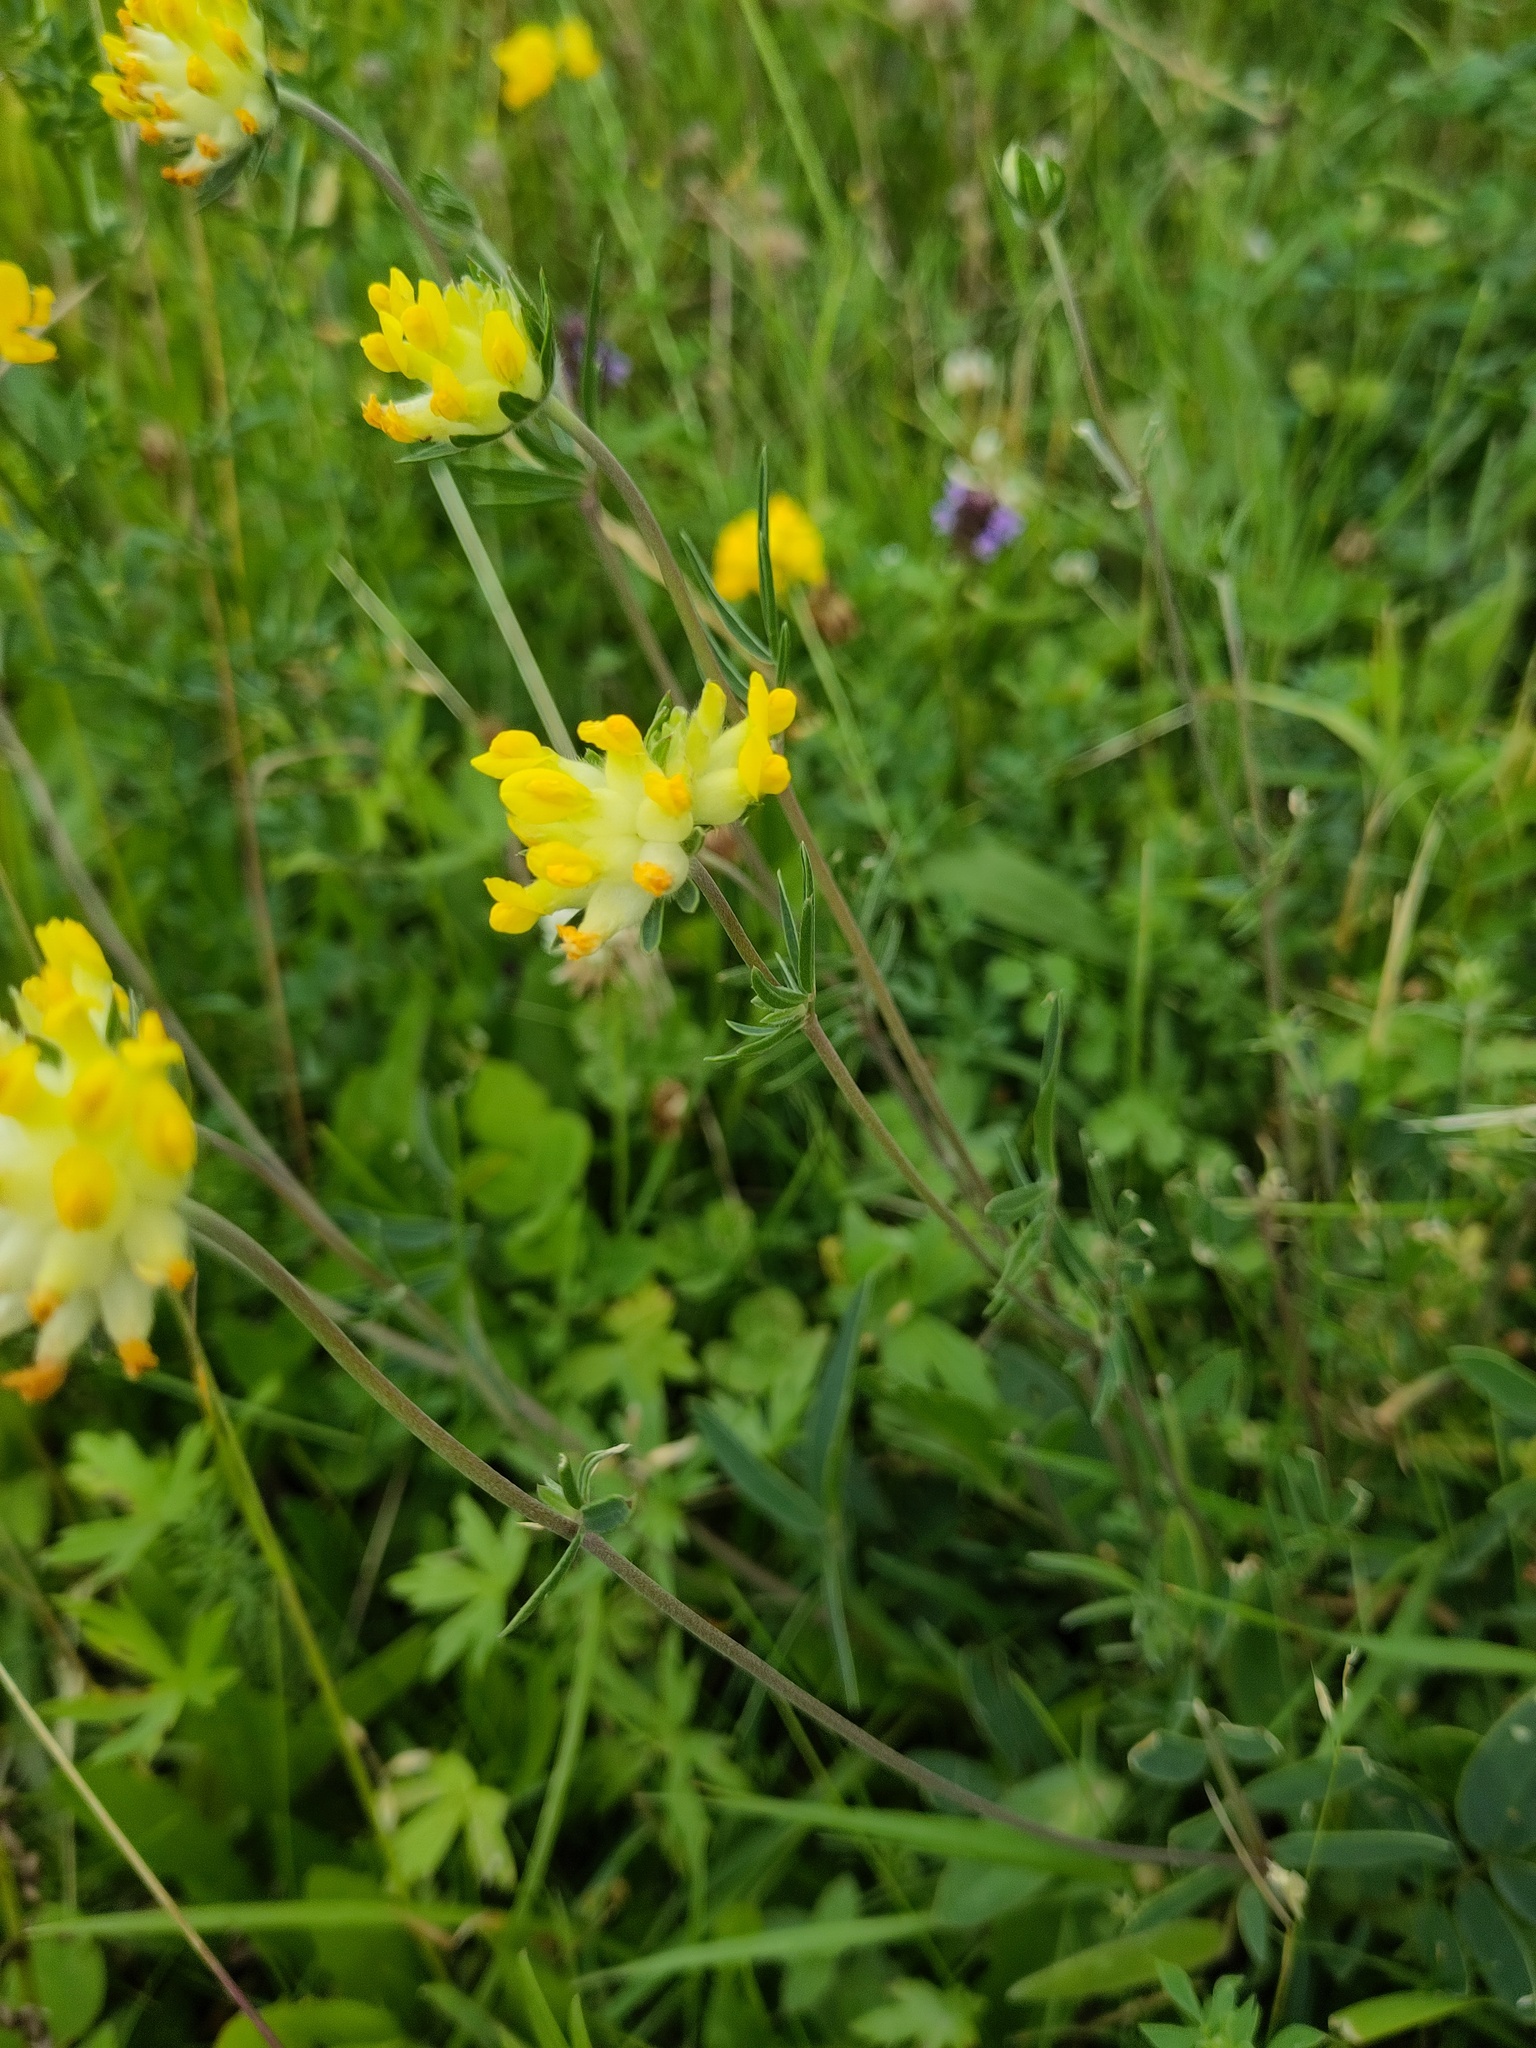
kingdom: Plantae
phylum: Tracheophyta
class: Magnoliopsida
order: Fabales
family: Fabaceae
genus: Anthyllis
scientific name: Anthyllis vulneraria
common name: Kidney vetch
